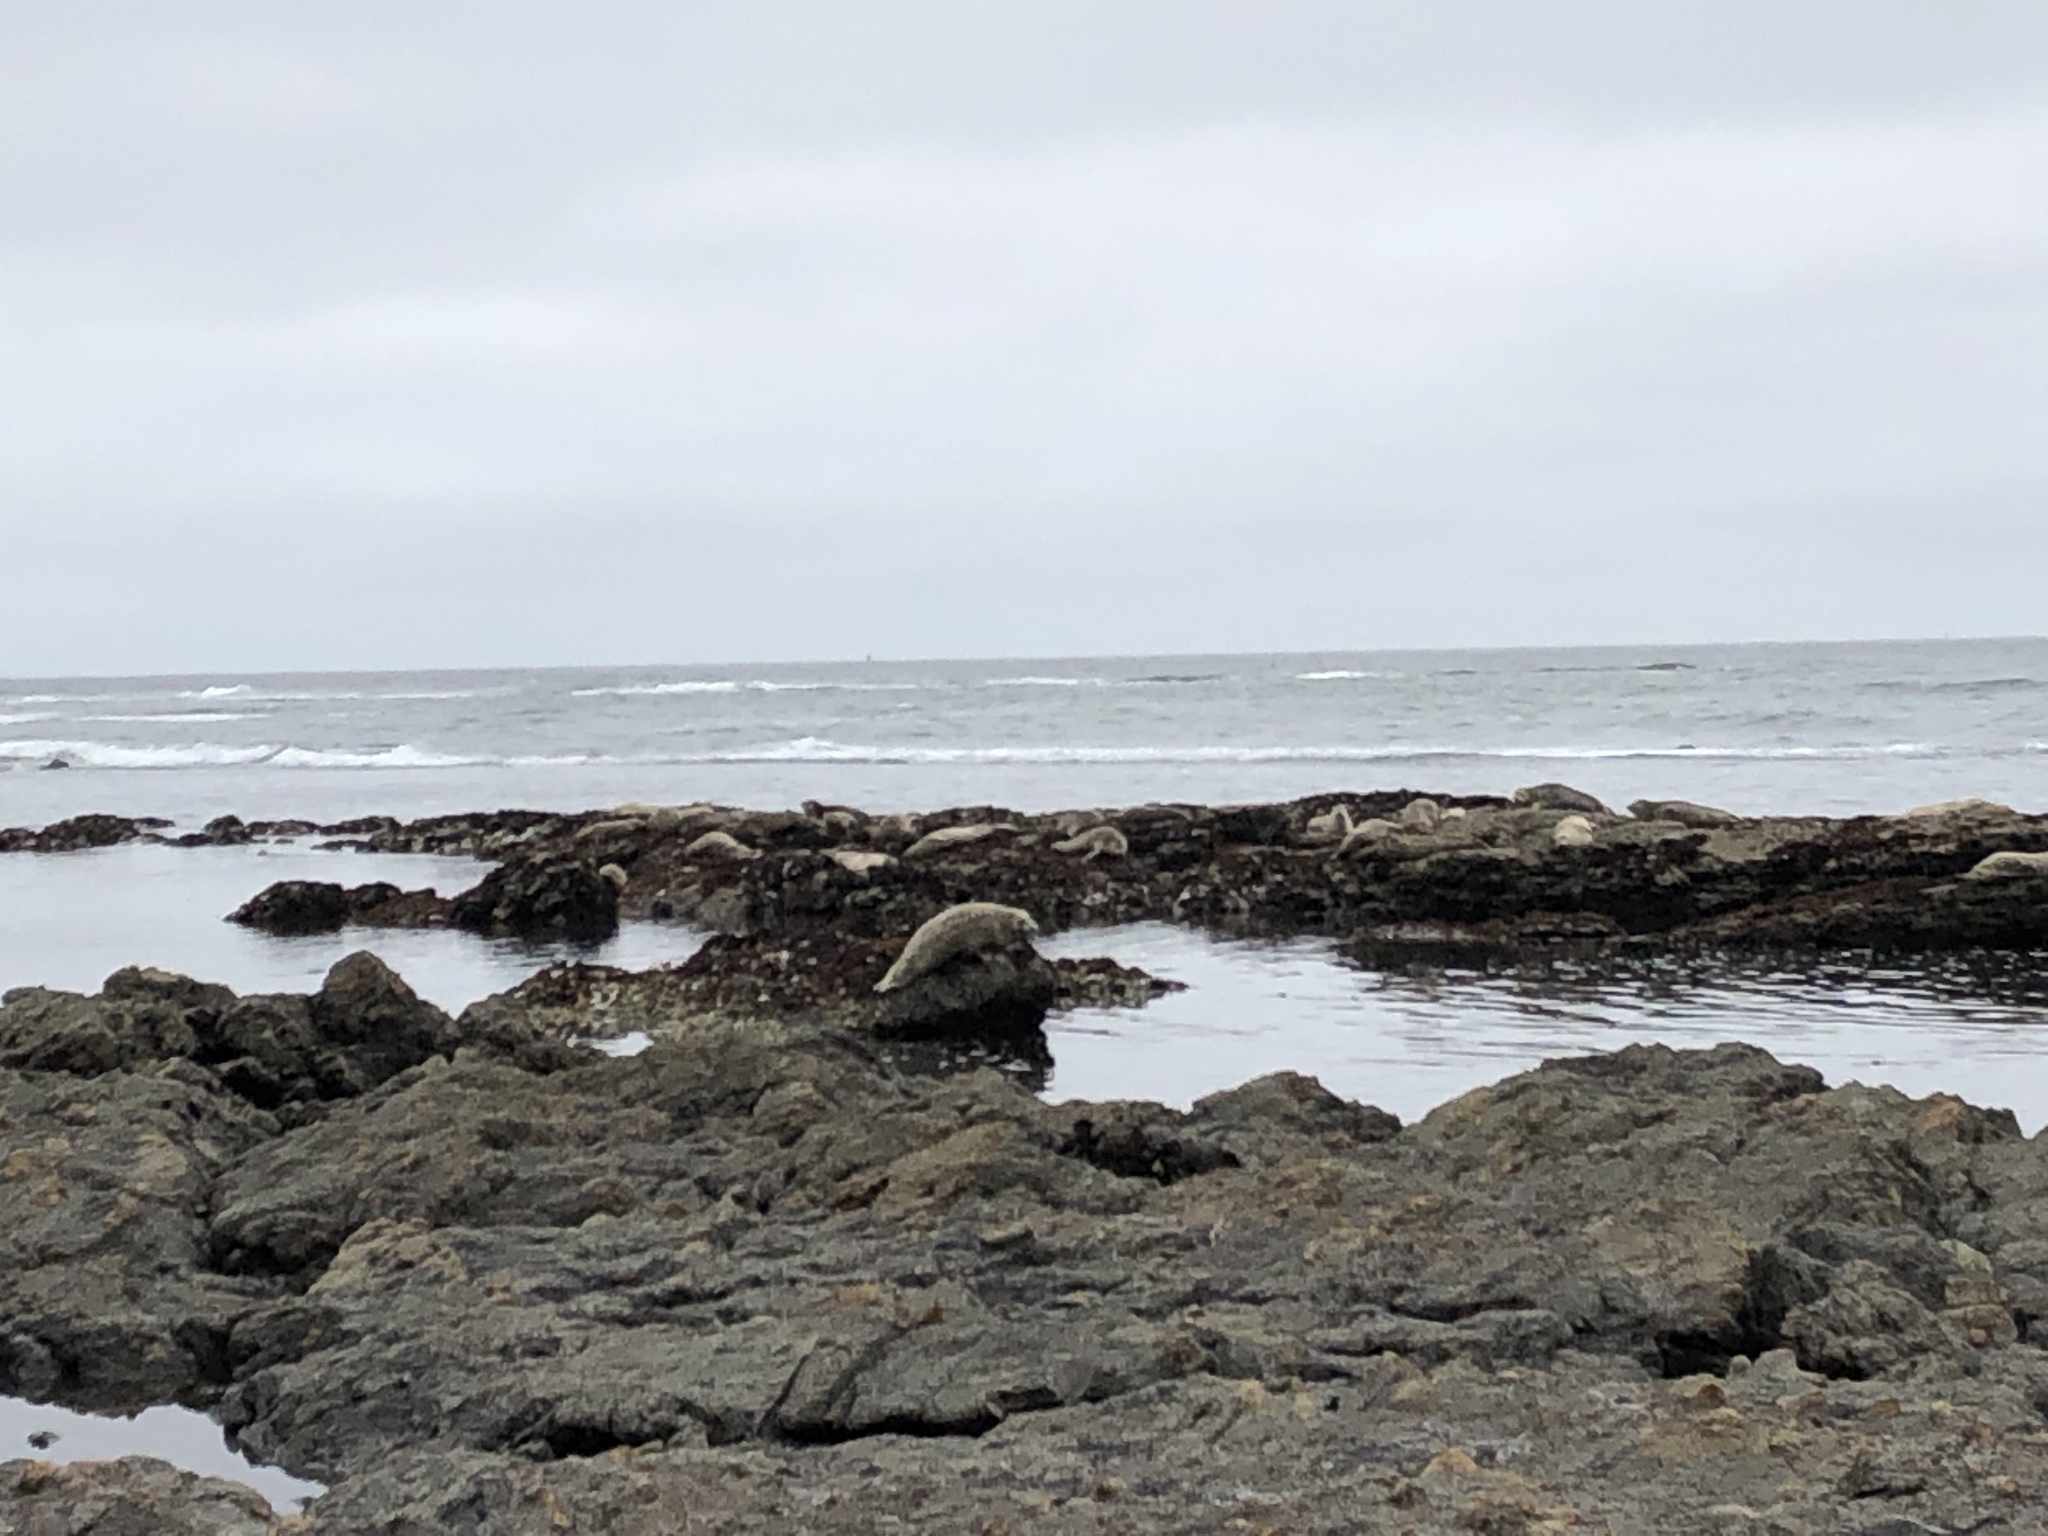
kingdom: Animalia
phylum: Chordata
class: Mammalia
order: Carnivora
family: Phocidae
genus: Phoca
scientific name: Phoca vitulina
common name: Harbor seal
